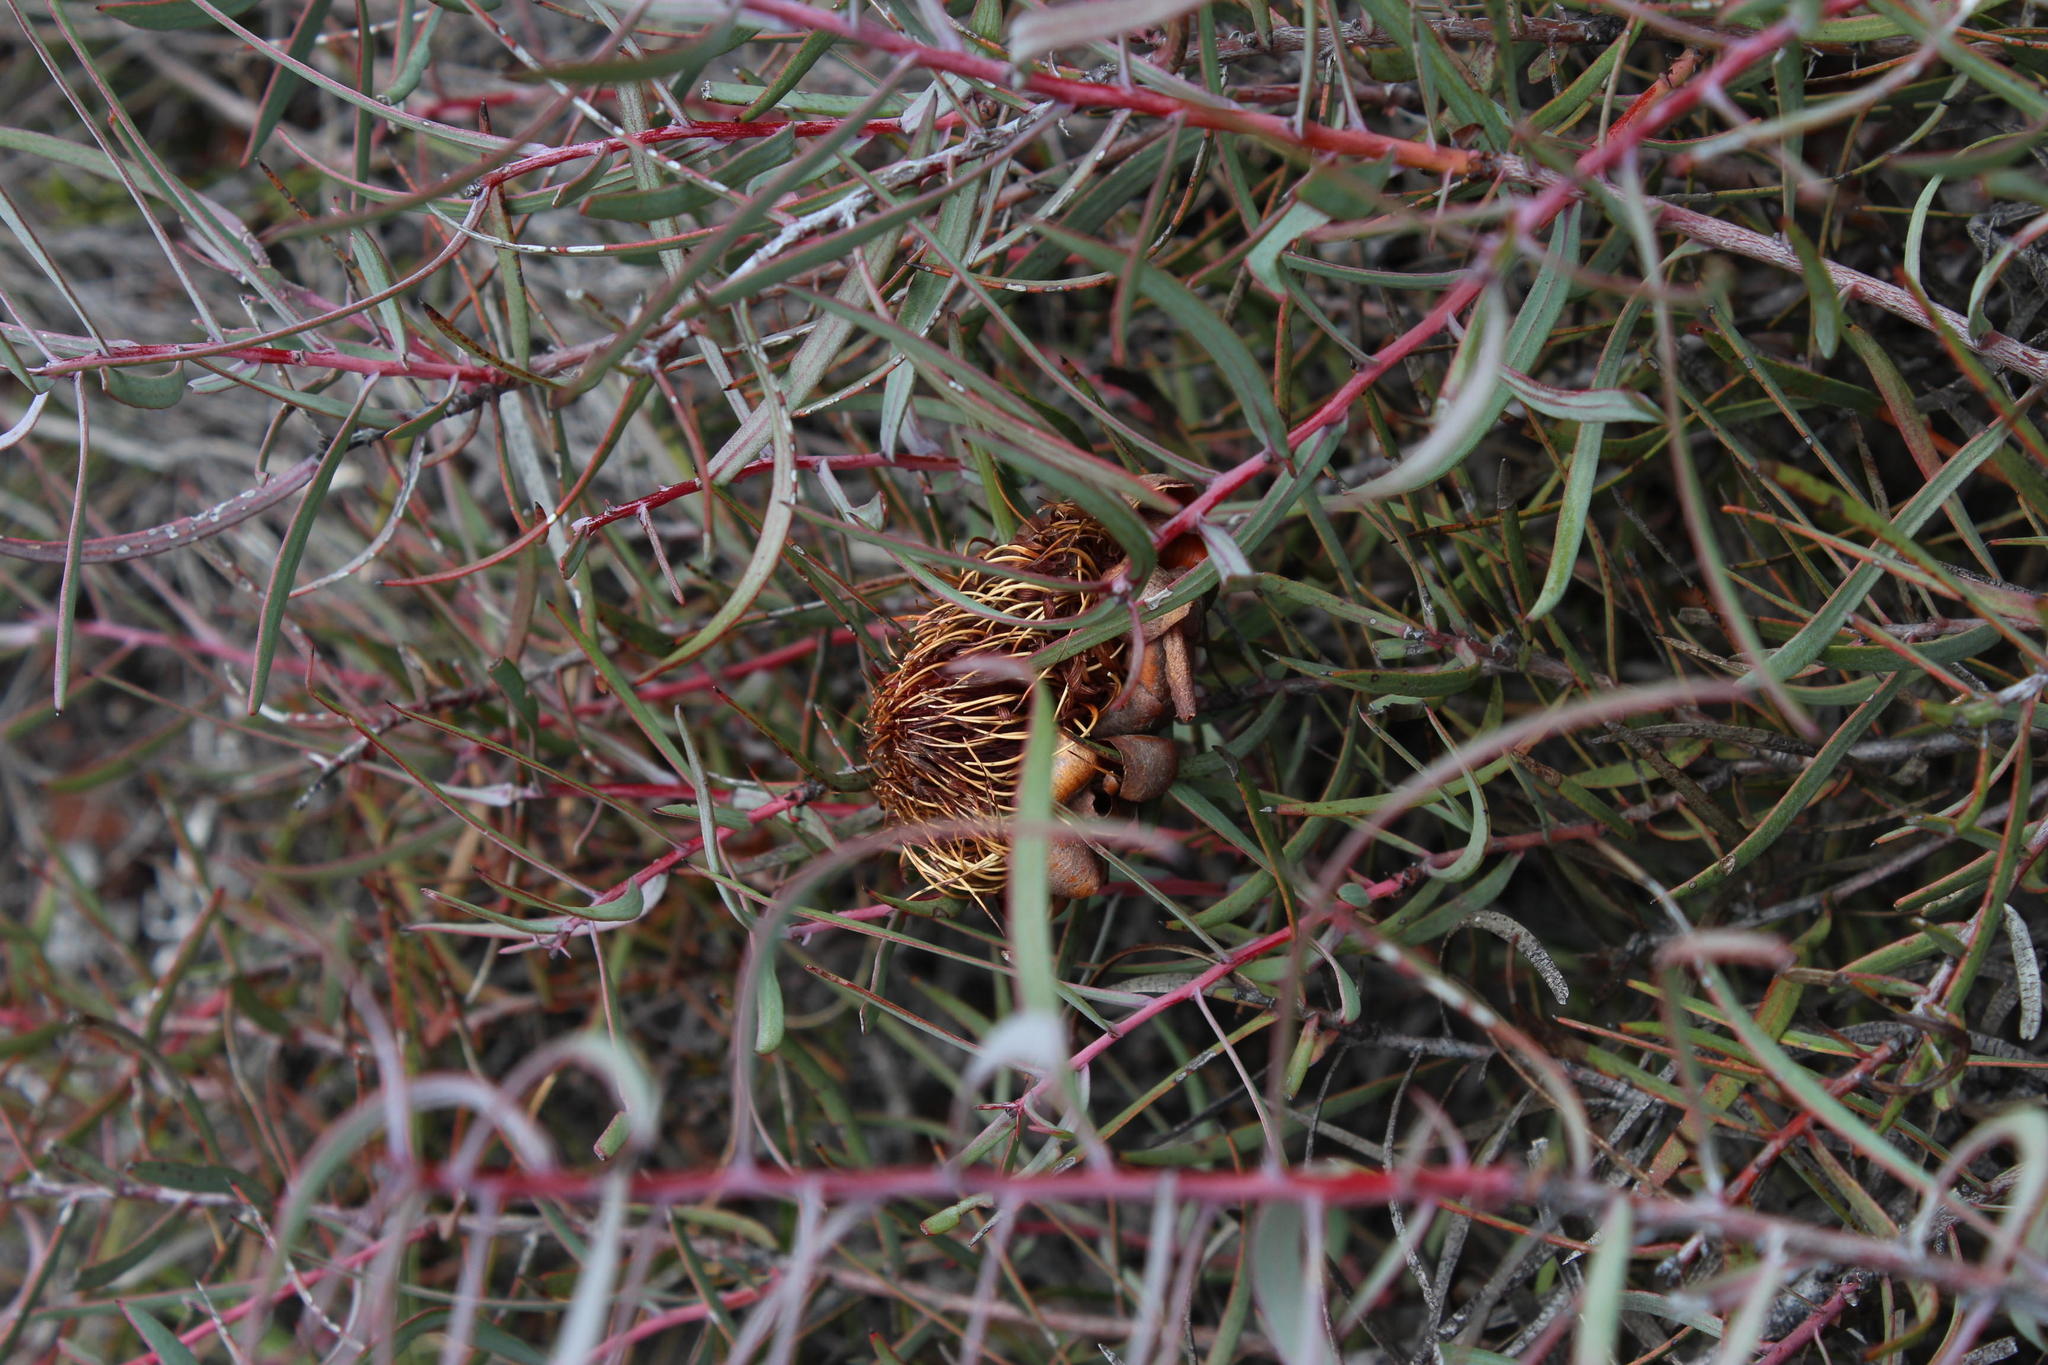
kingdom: Plantae
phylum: Tracheophyta
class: Magnoliopsida
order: Proteales
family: Proteaceae
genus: Protea
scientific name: Protea humiflora
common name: Patent-leaf sugarbush
